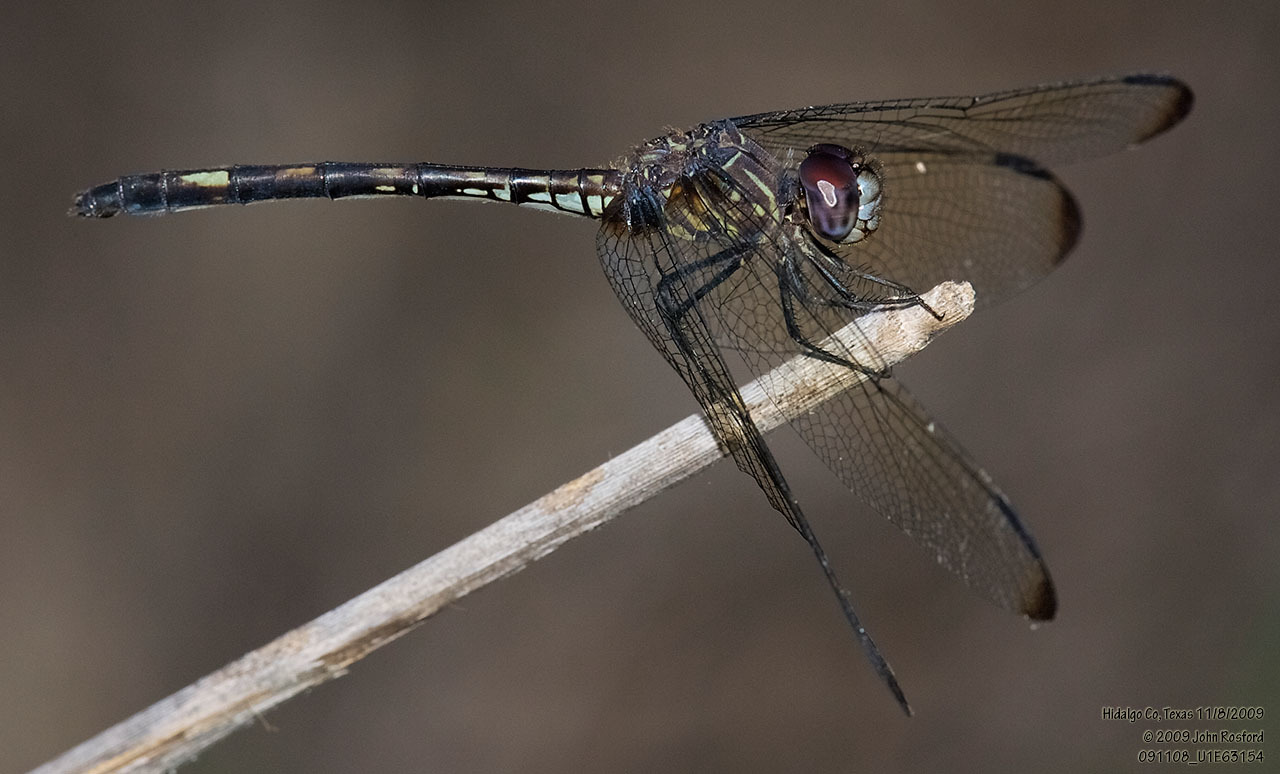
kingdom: Animalia
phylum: Arthropoda
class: Insecta
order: Odonata
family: Libellulidae
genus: Dythemis
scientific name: Dythemis nigrescens
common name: Black setwing
